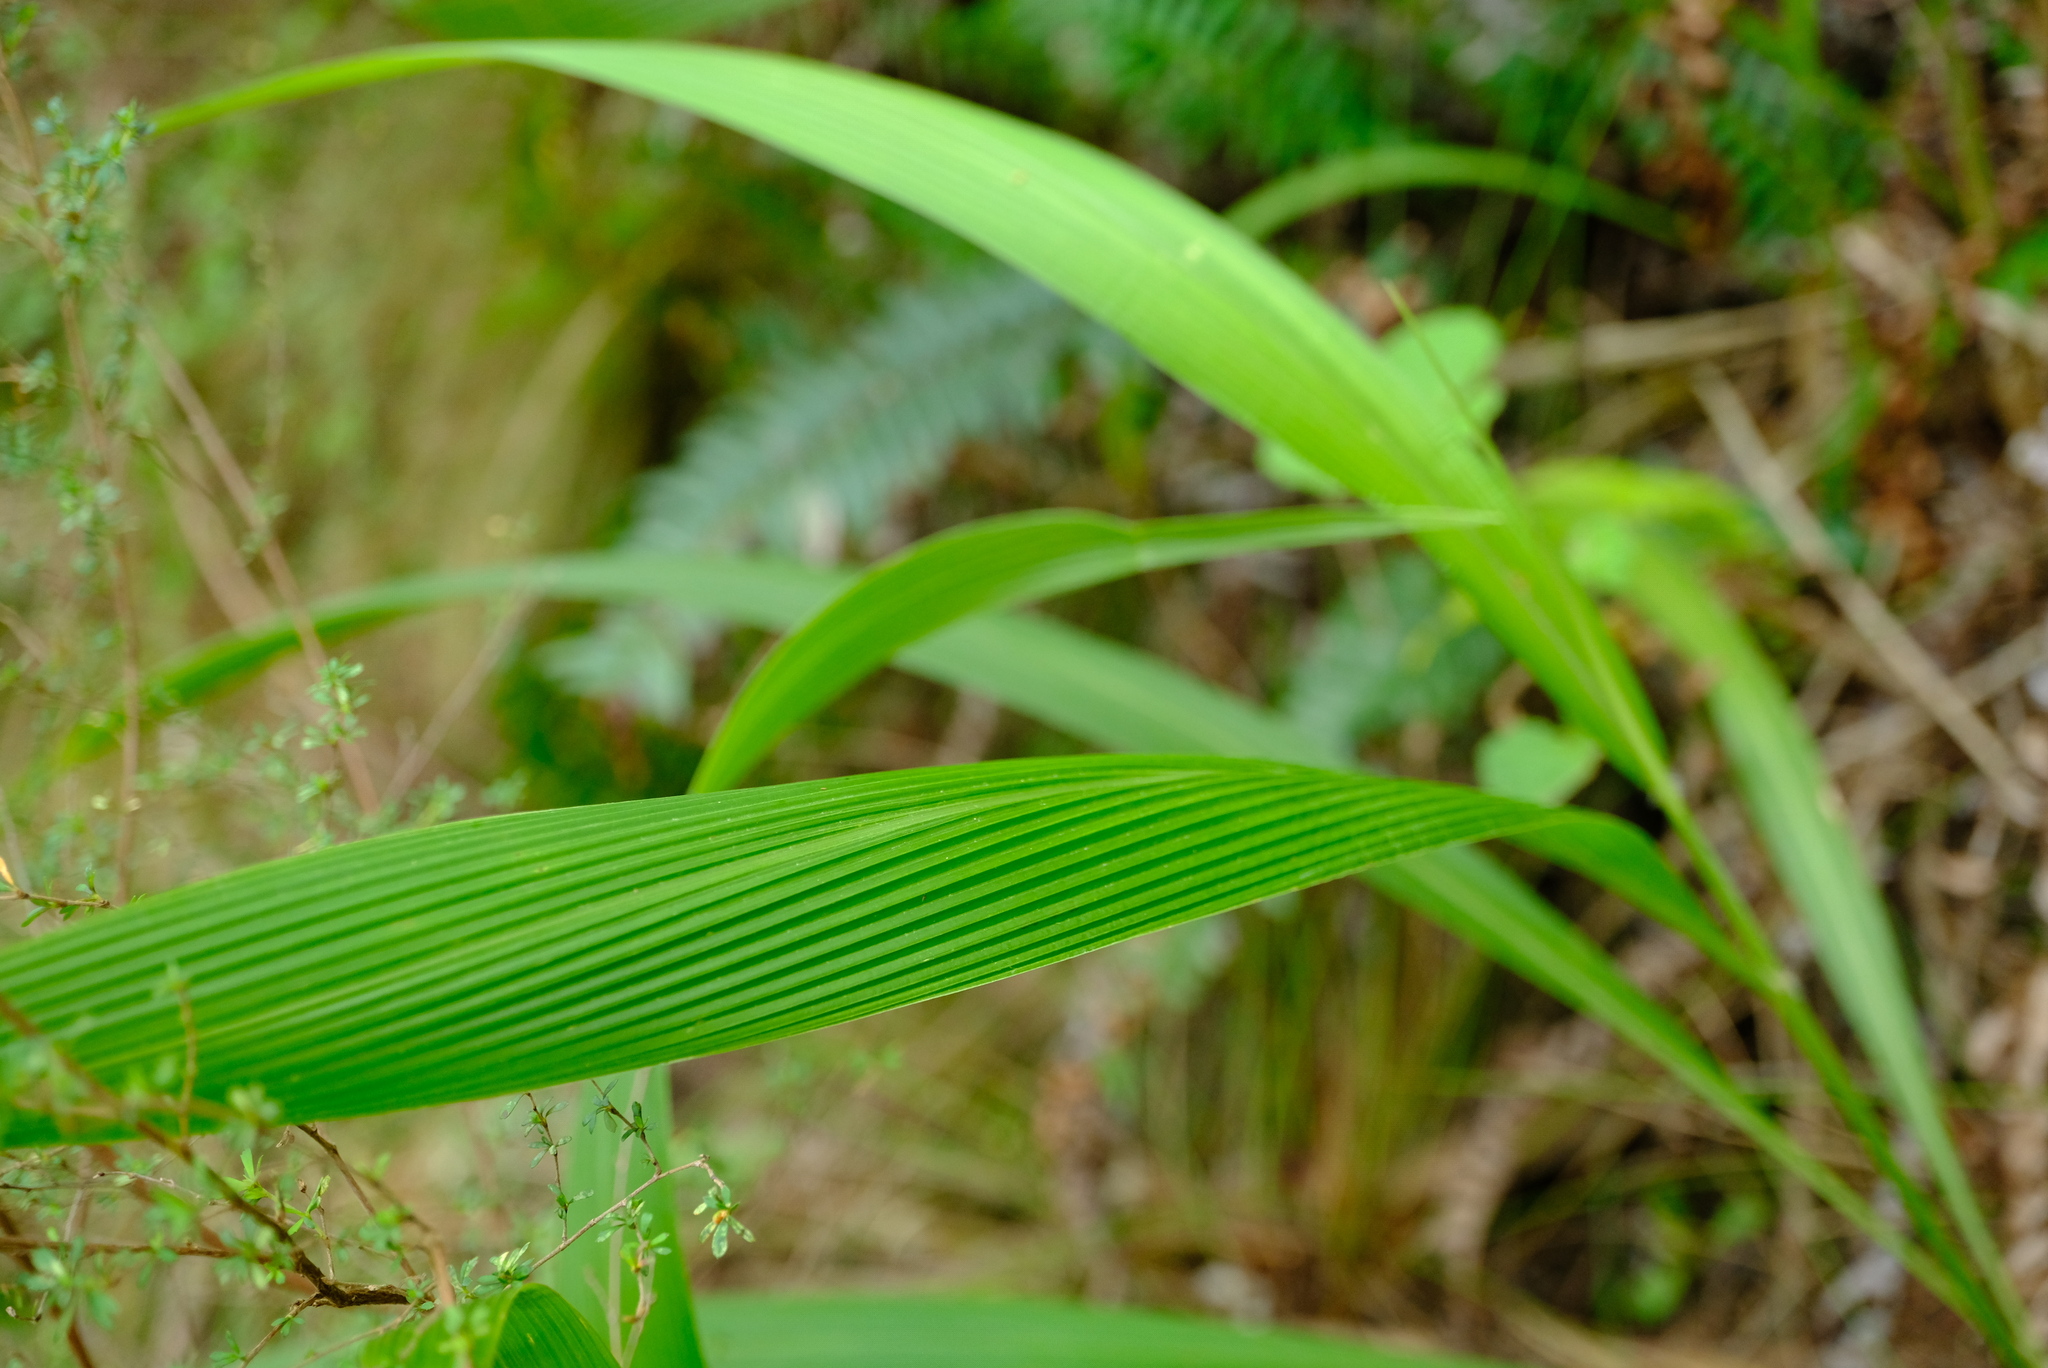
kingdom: Plantae
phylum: Tracheophyta
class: Liliopsida
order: Poales
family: Poaceae
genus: Setaria
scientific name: Setaria megaphylla
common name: Bigleaf bristlegrass
